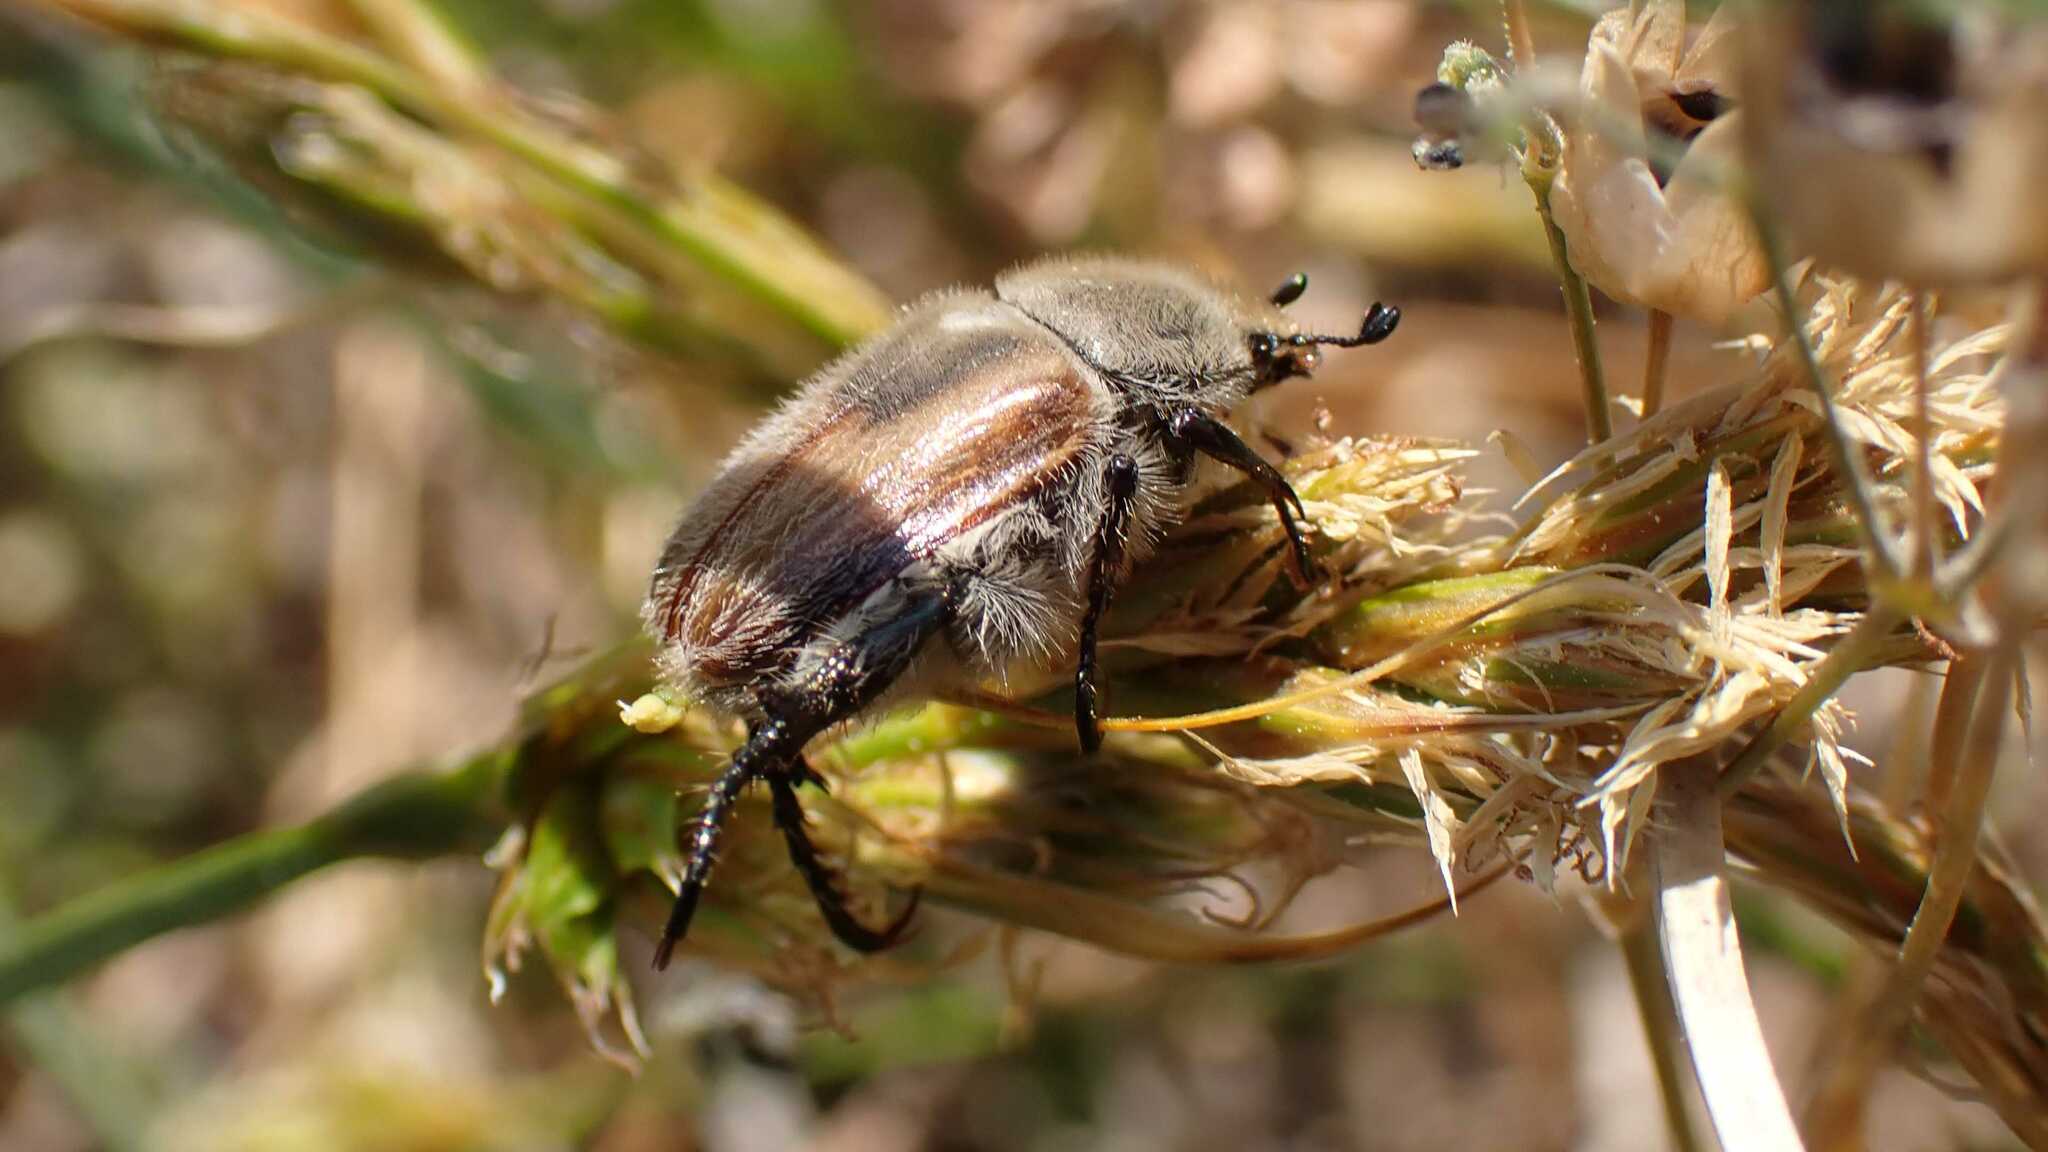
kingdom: Animalia
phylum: Arthropoda
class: Insecta
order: Coleoptera
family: Scarabaeidae
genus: Chaetopteroplia
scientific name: Chaetopteroplia segetum
